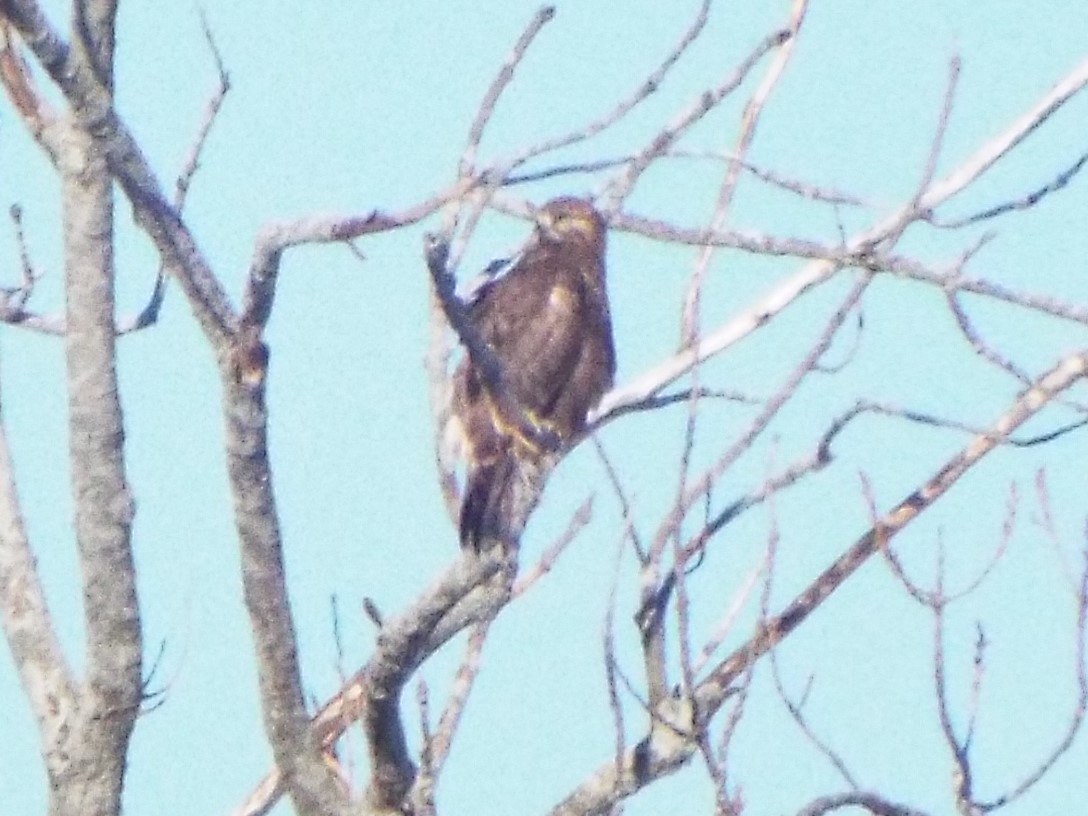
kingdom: Animalia
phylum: Chordata
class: Aves
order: Accipitriformes
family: Accipitridae
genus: Buteo
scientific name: Buteo lagopus
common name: Rough-legged buzzard
